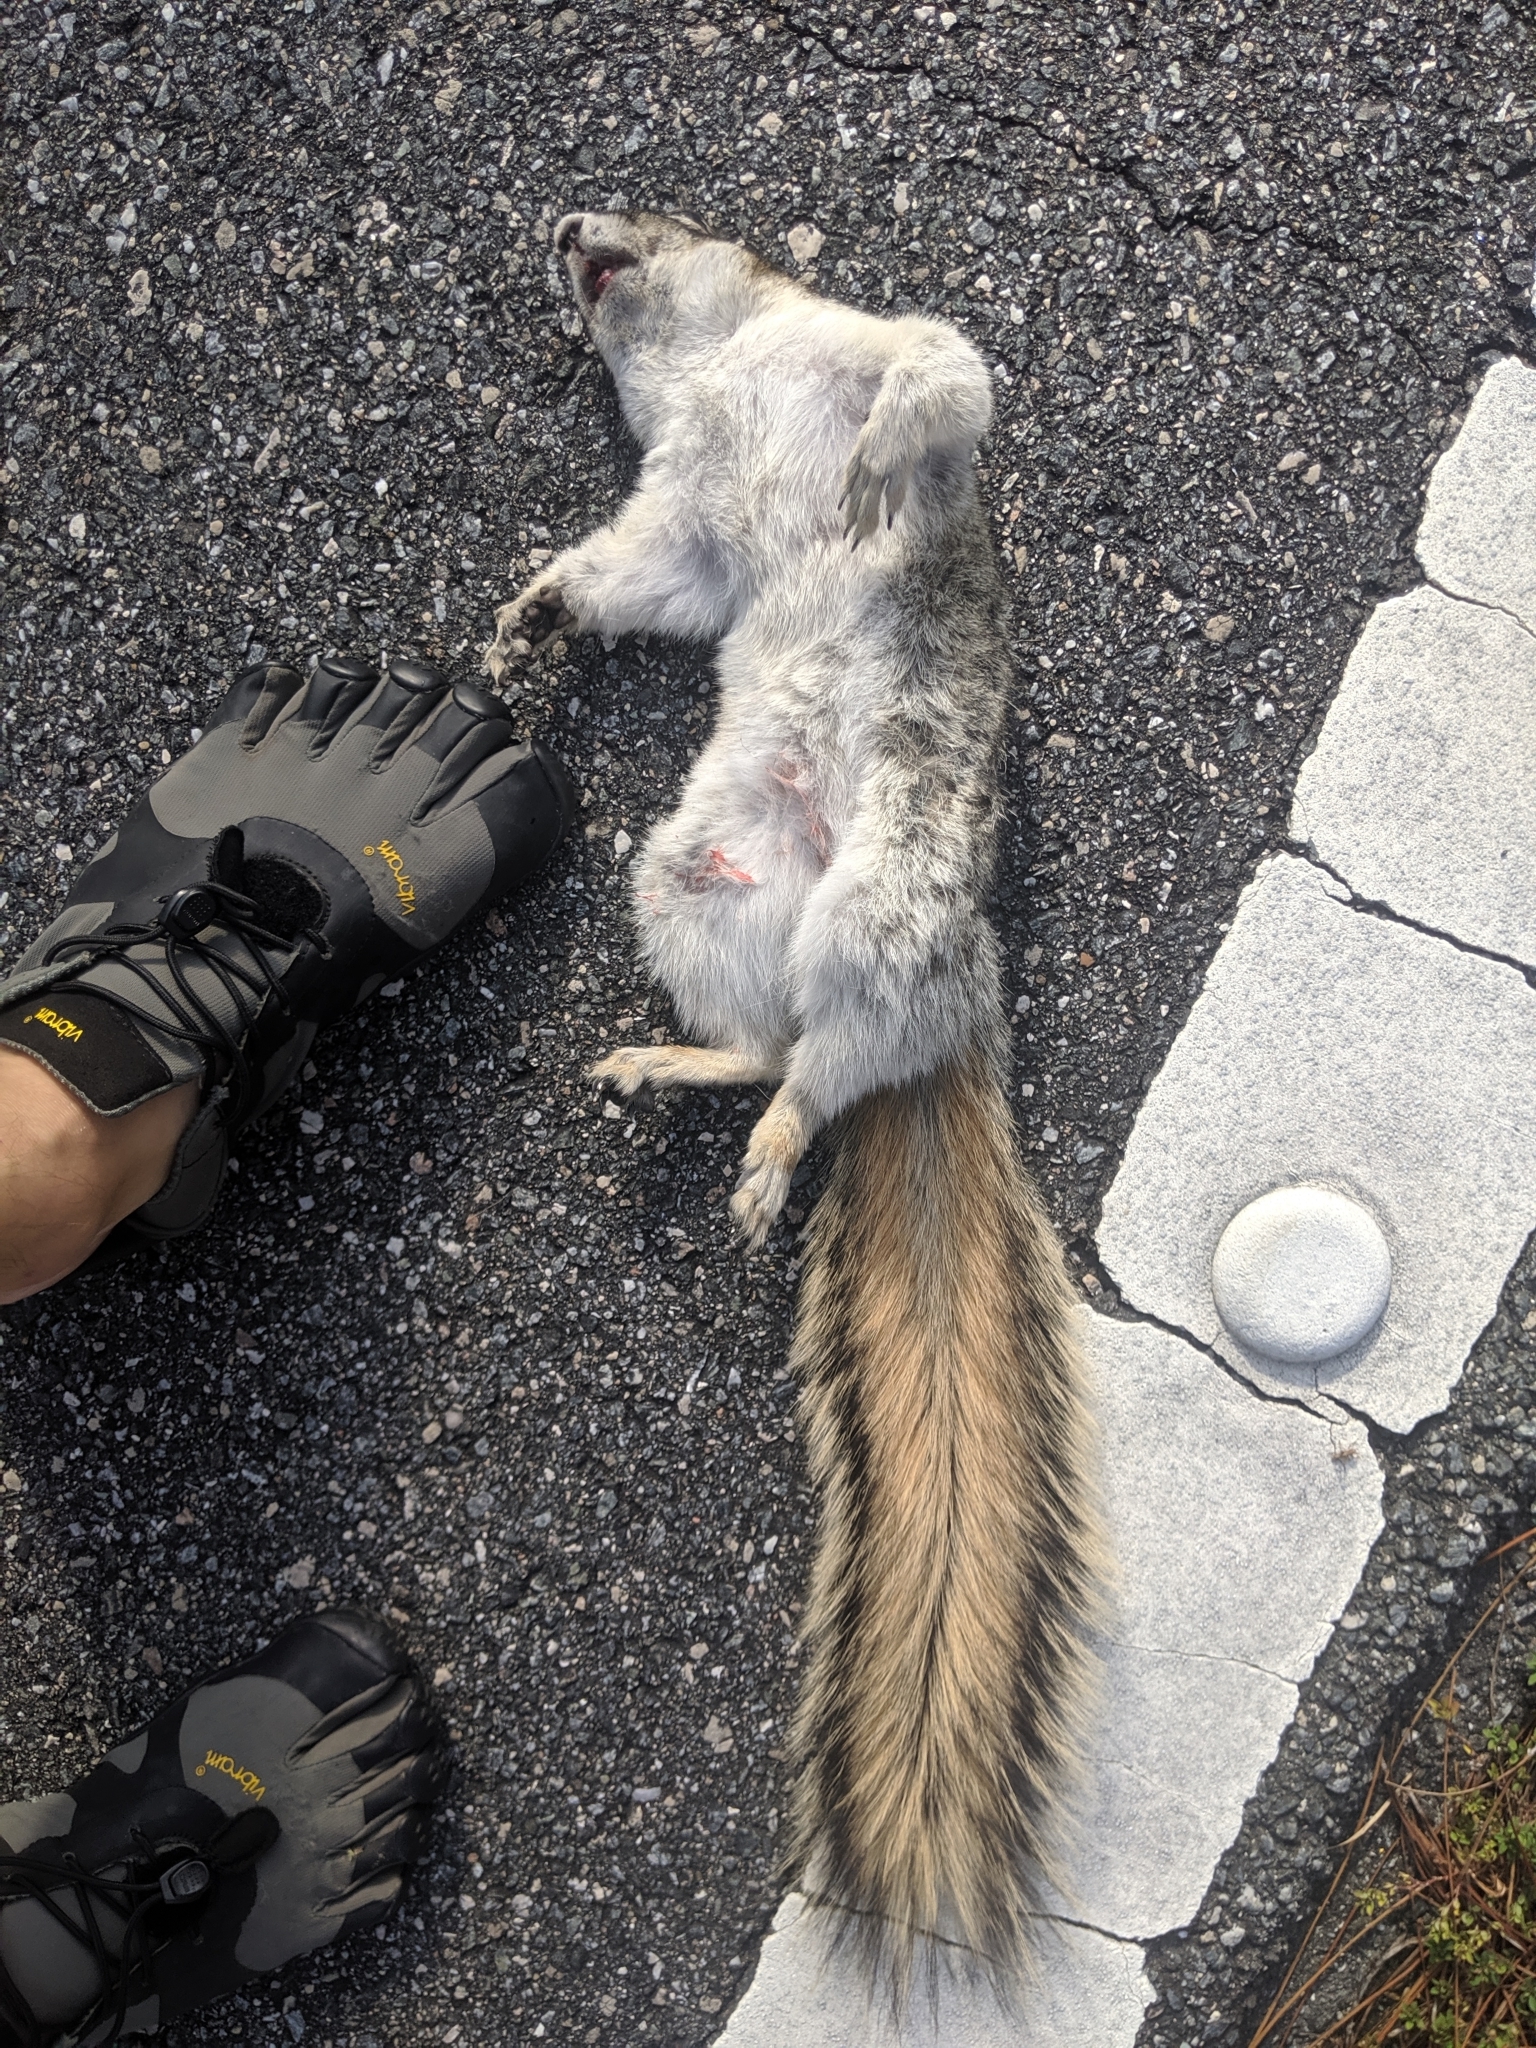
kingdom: Animalia
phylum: Chordata
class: Mammalia
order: Rodentia
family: Sciuridae
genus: Sciurus
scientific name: Sciurus niger
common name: Fox squirrel
